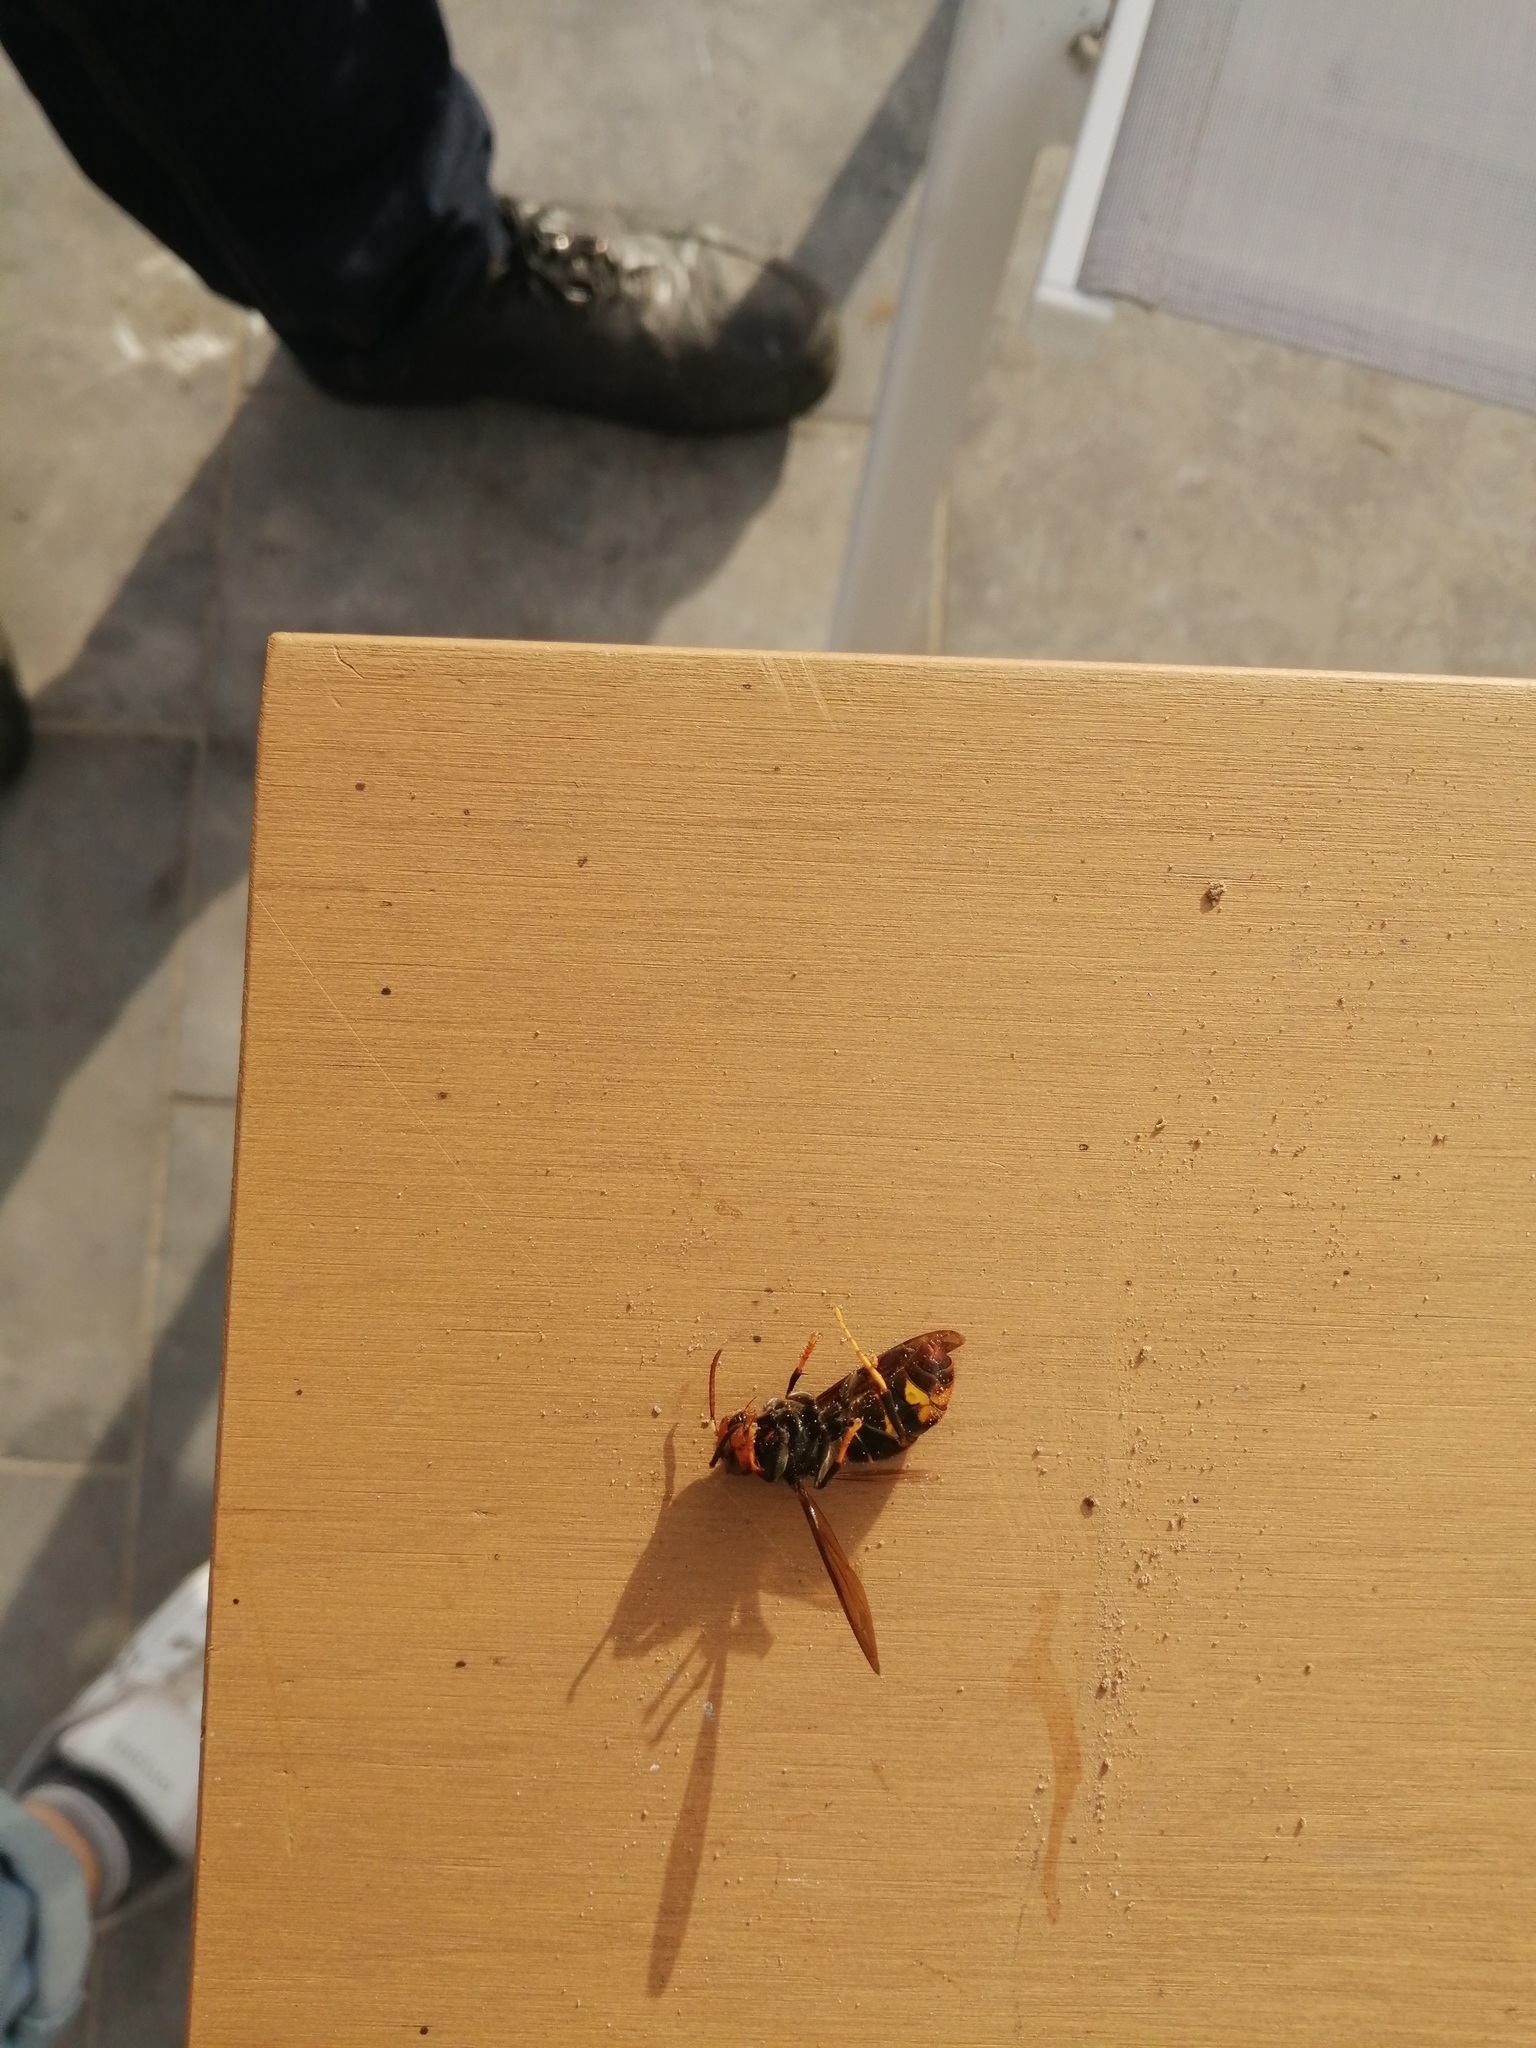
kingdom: Animalia
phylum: Arthropoda
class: Insecta
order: Hymenoptera
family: Vespidae
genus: Vespa
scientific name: Vespa velutina
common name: Asian hornet
